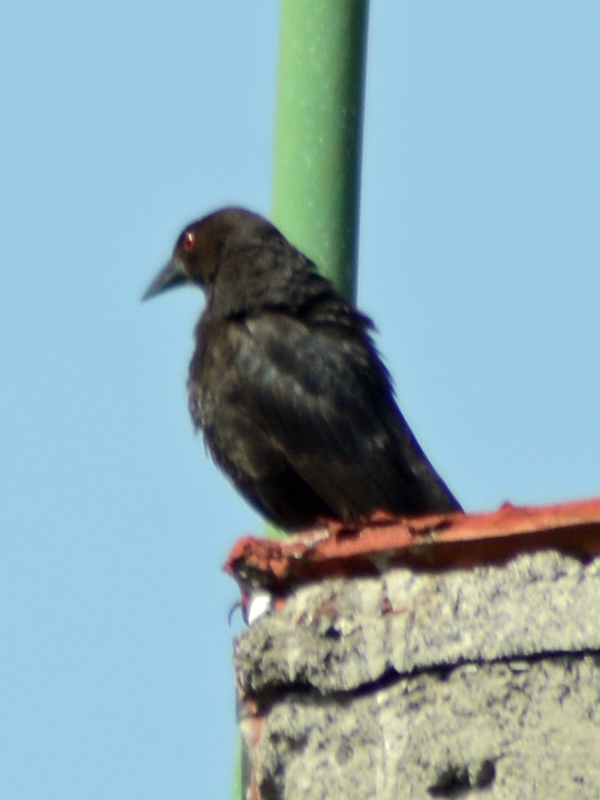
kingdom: Animalia
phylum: Chordata
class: Aves
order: Passeriformes
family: Icteridae
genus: Molothrus
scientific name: Molothrus aeneus
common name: Bronzed cowbird
